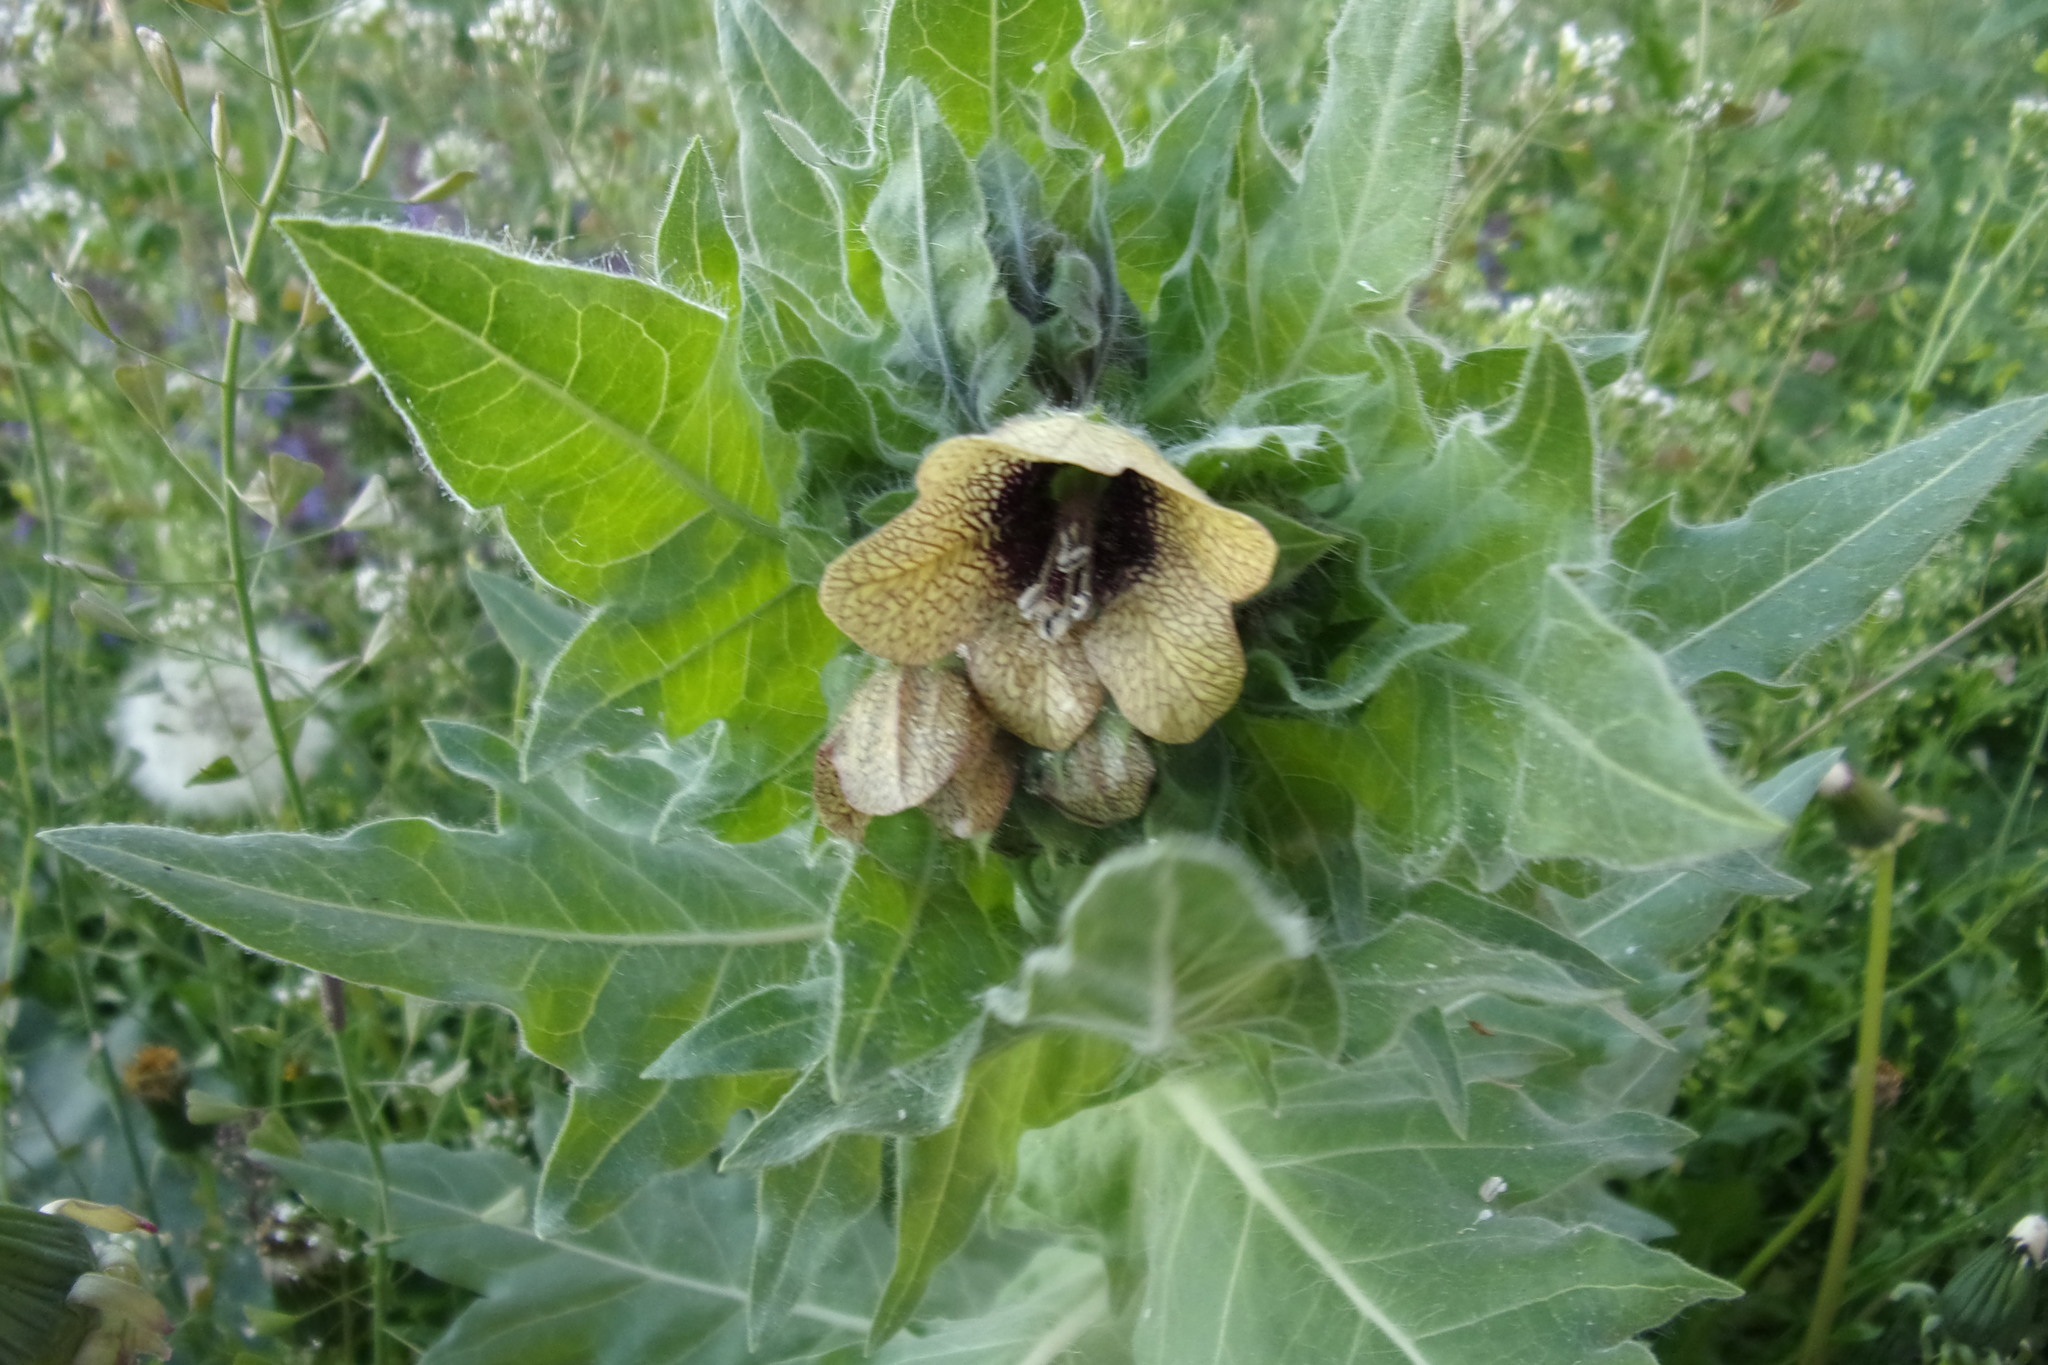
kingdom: Plantae
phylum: Tracheophyta
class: Magnoliopsida
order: Solanales
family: Solanaceae
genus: Hyoscyamus
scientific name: Hyoscyamus niger
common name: Henbane
